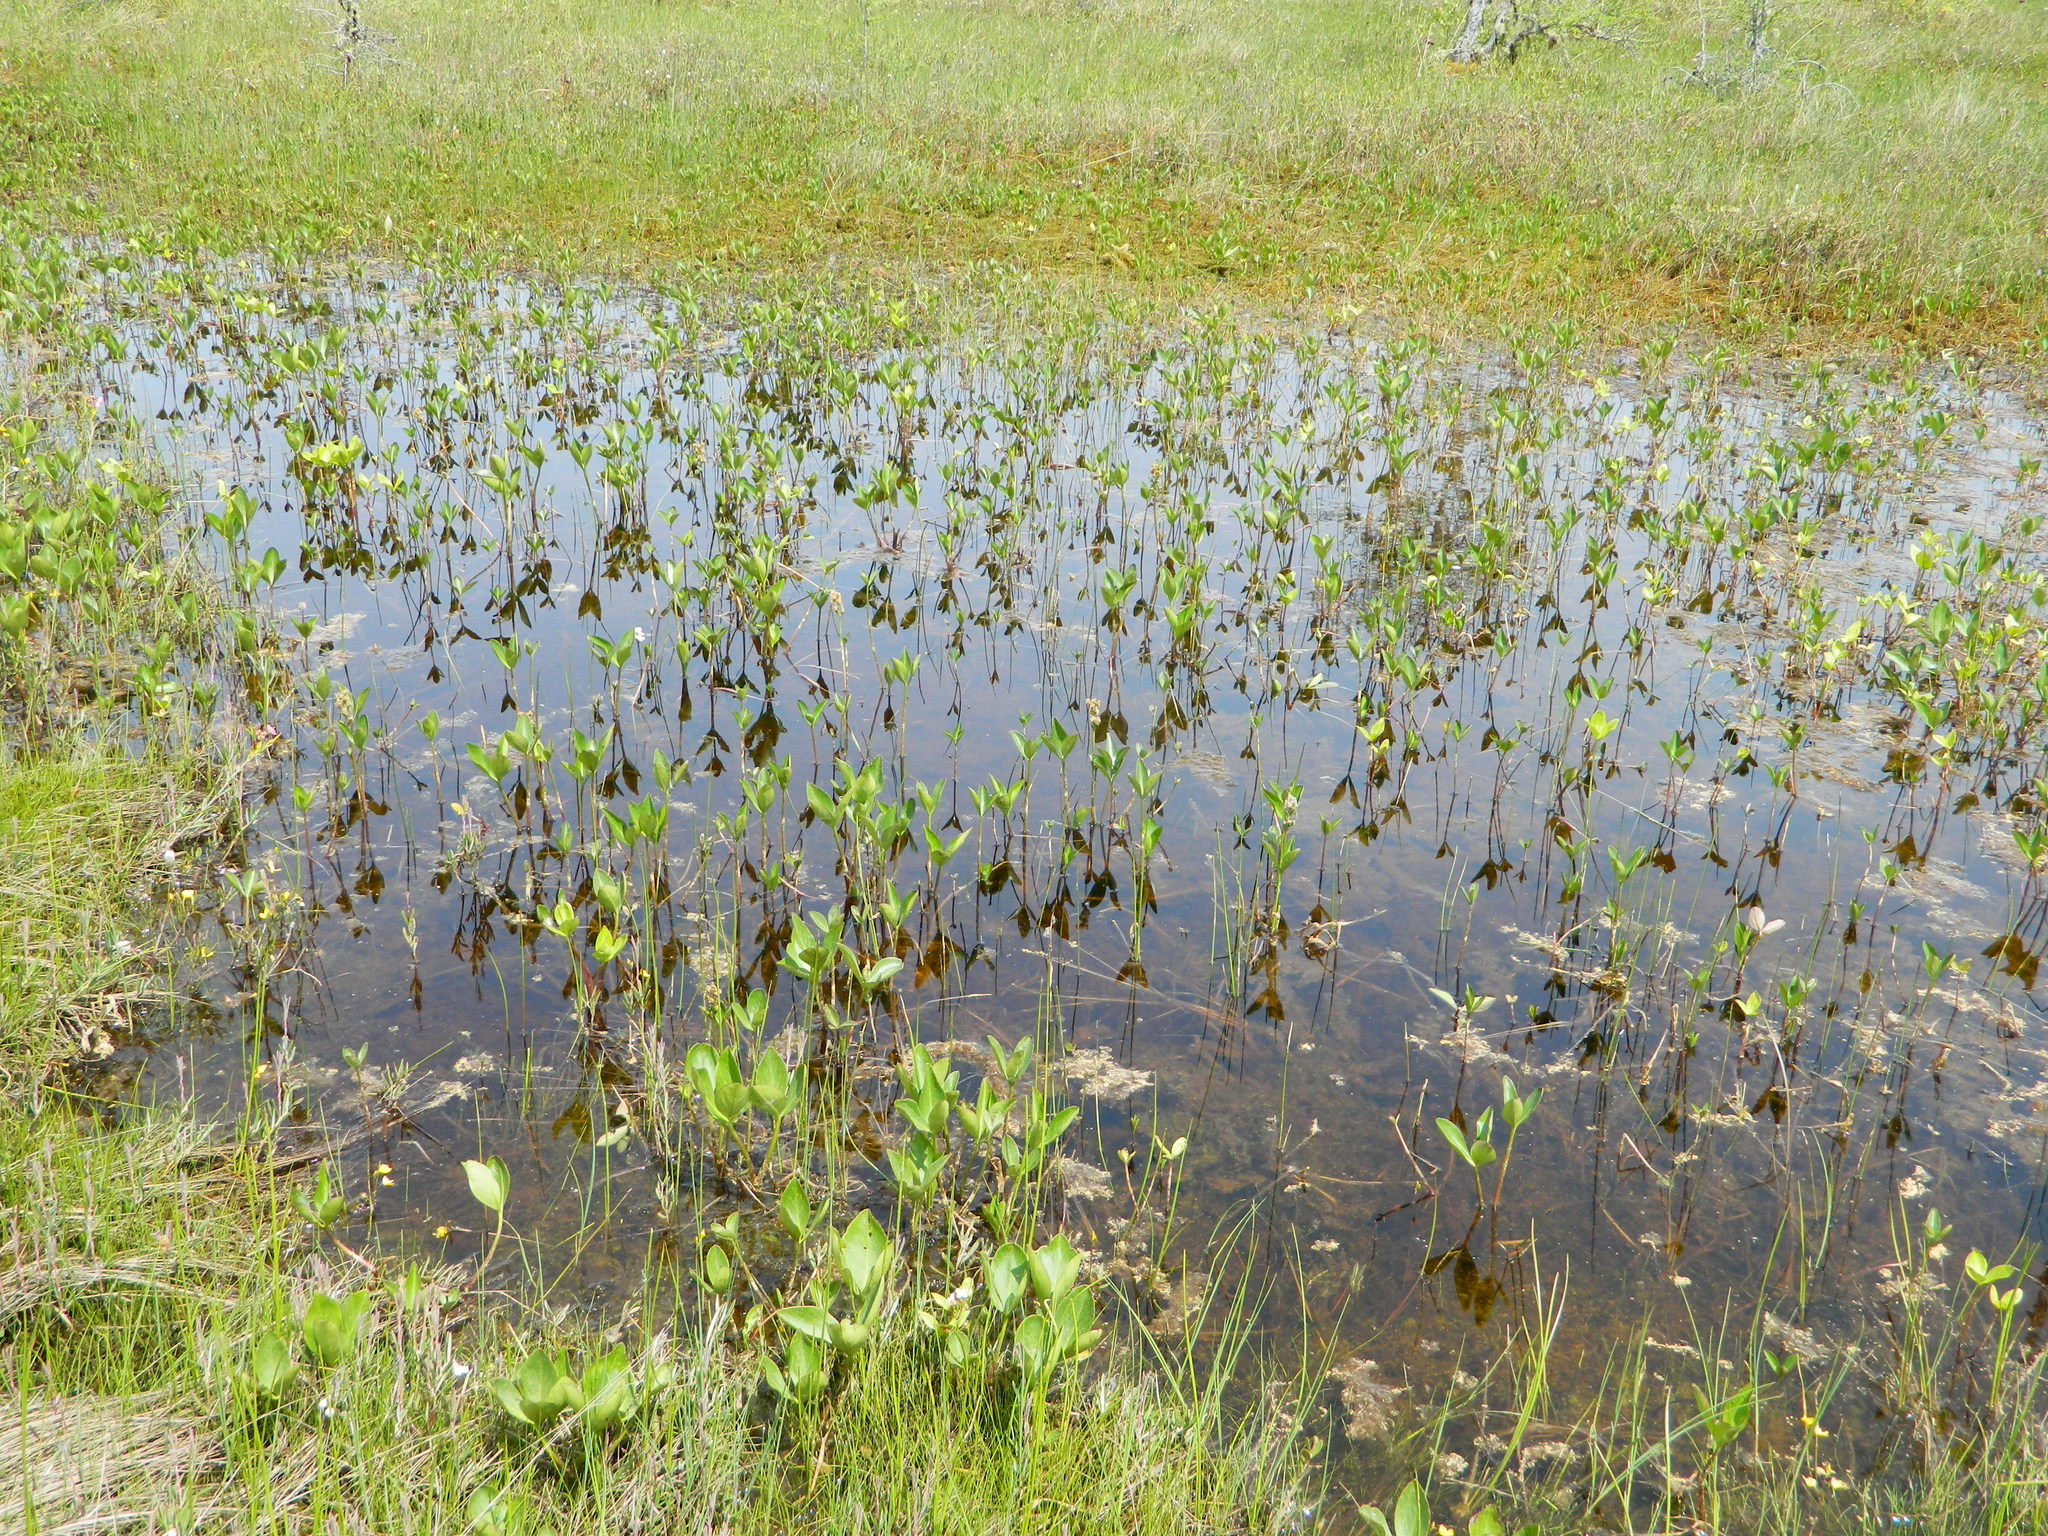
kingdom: Plantae
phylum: Tracheophyta
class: Magnoliopsida
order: Asterales
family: Menyanthaceae
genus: Menyanthes
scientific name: Menyanthes trifoliata
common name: Bogbean
